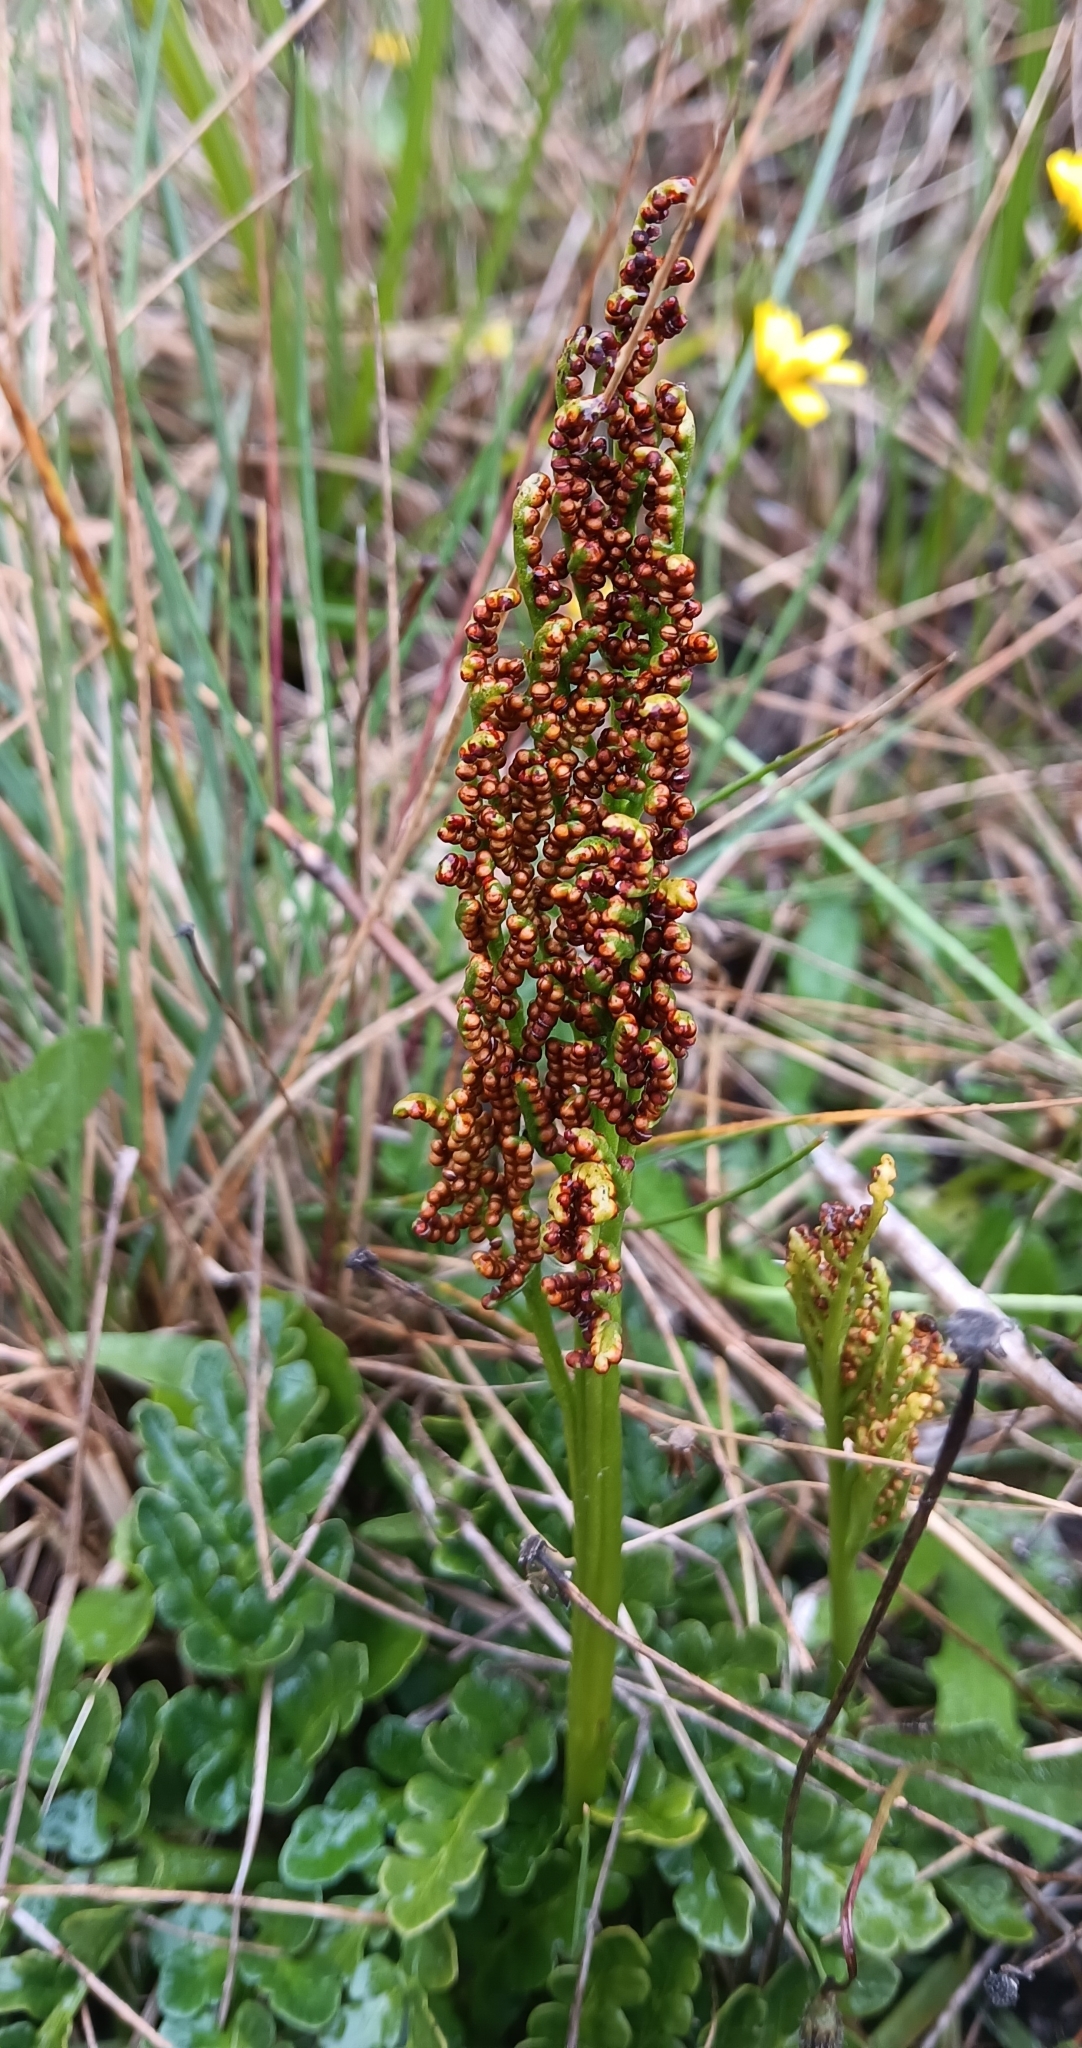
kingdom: Plantae
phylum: Tracheophyta
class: Polypodiopsida
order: Ophioglossales
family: Ophioglossaceae
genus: Sceptridium
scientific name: Sceptridium multifidum
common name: Leathery grape fern
